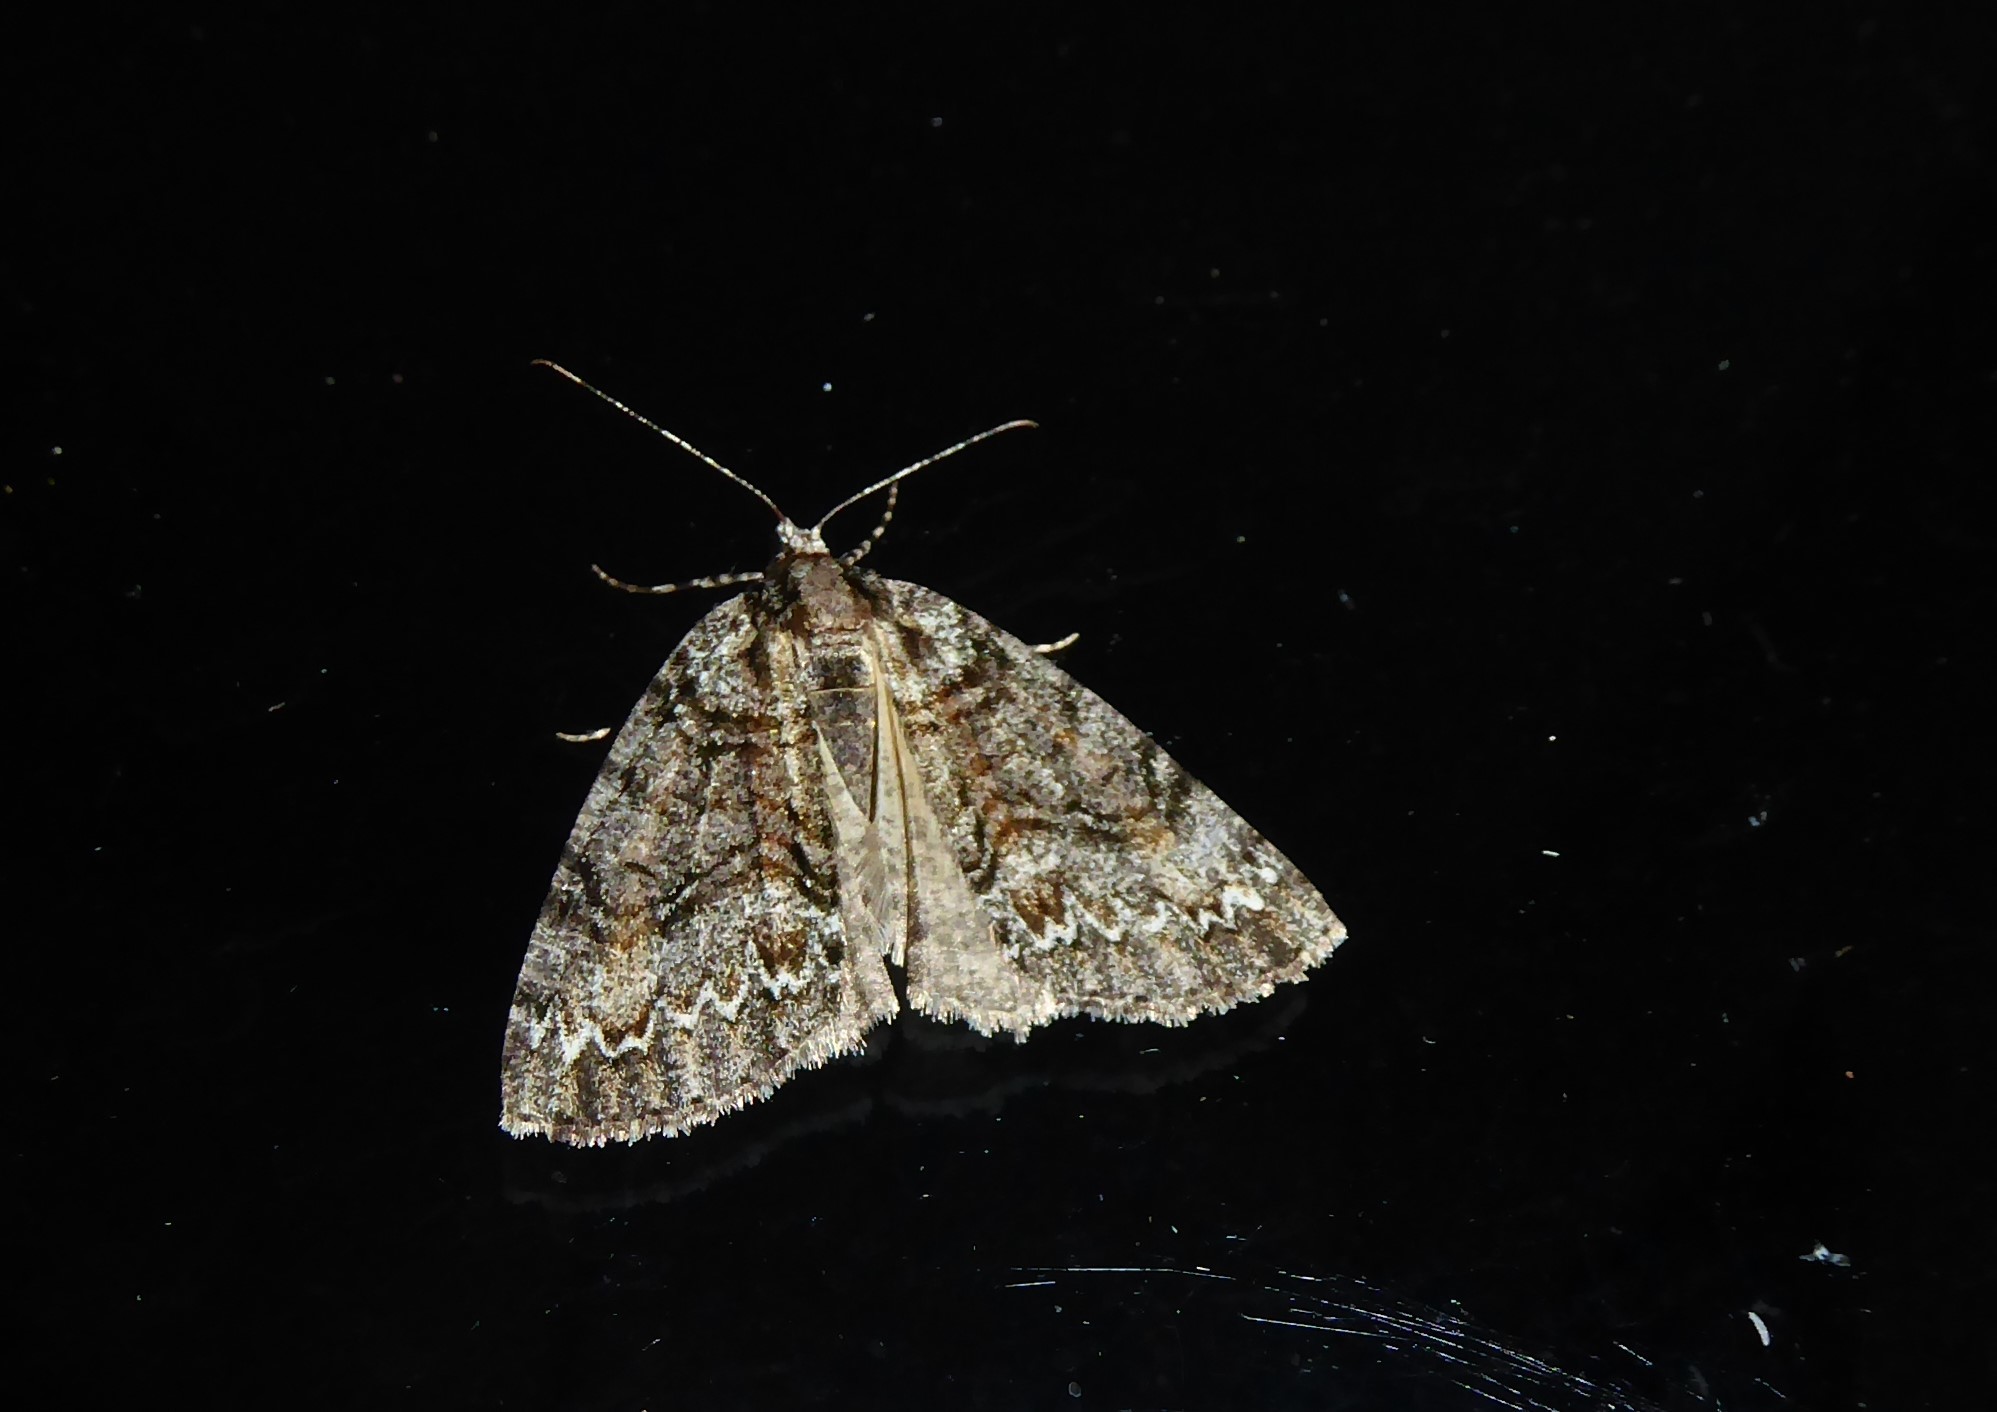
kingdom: Animalia
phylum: Arthropoda
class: Insecta
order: Lepidoptera
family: Geometridae
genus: Pseudocoremia
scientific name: Pseudocoremia suavis
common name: Common forest looper
